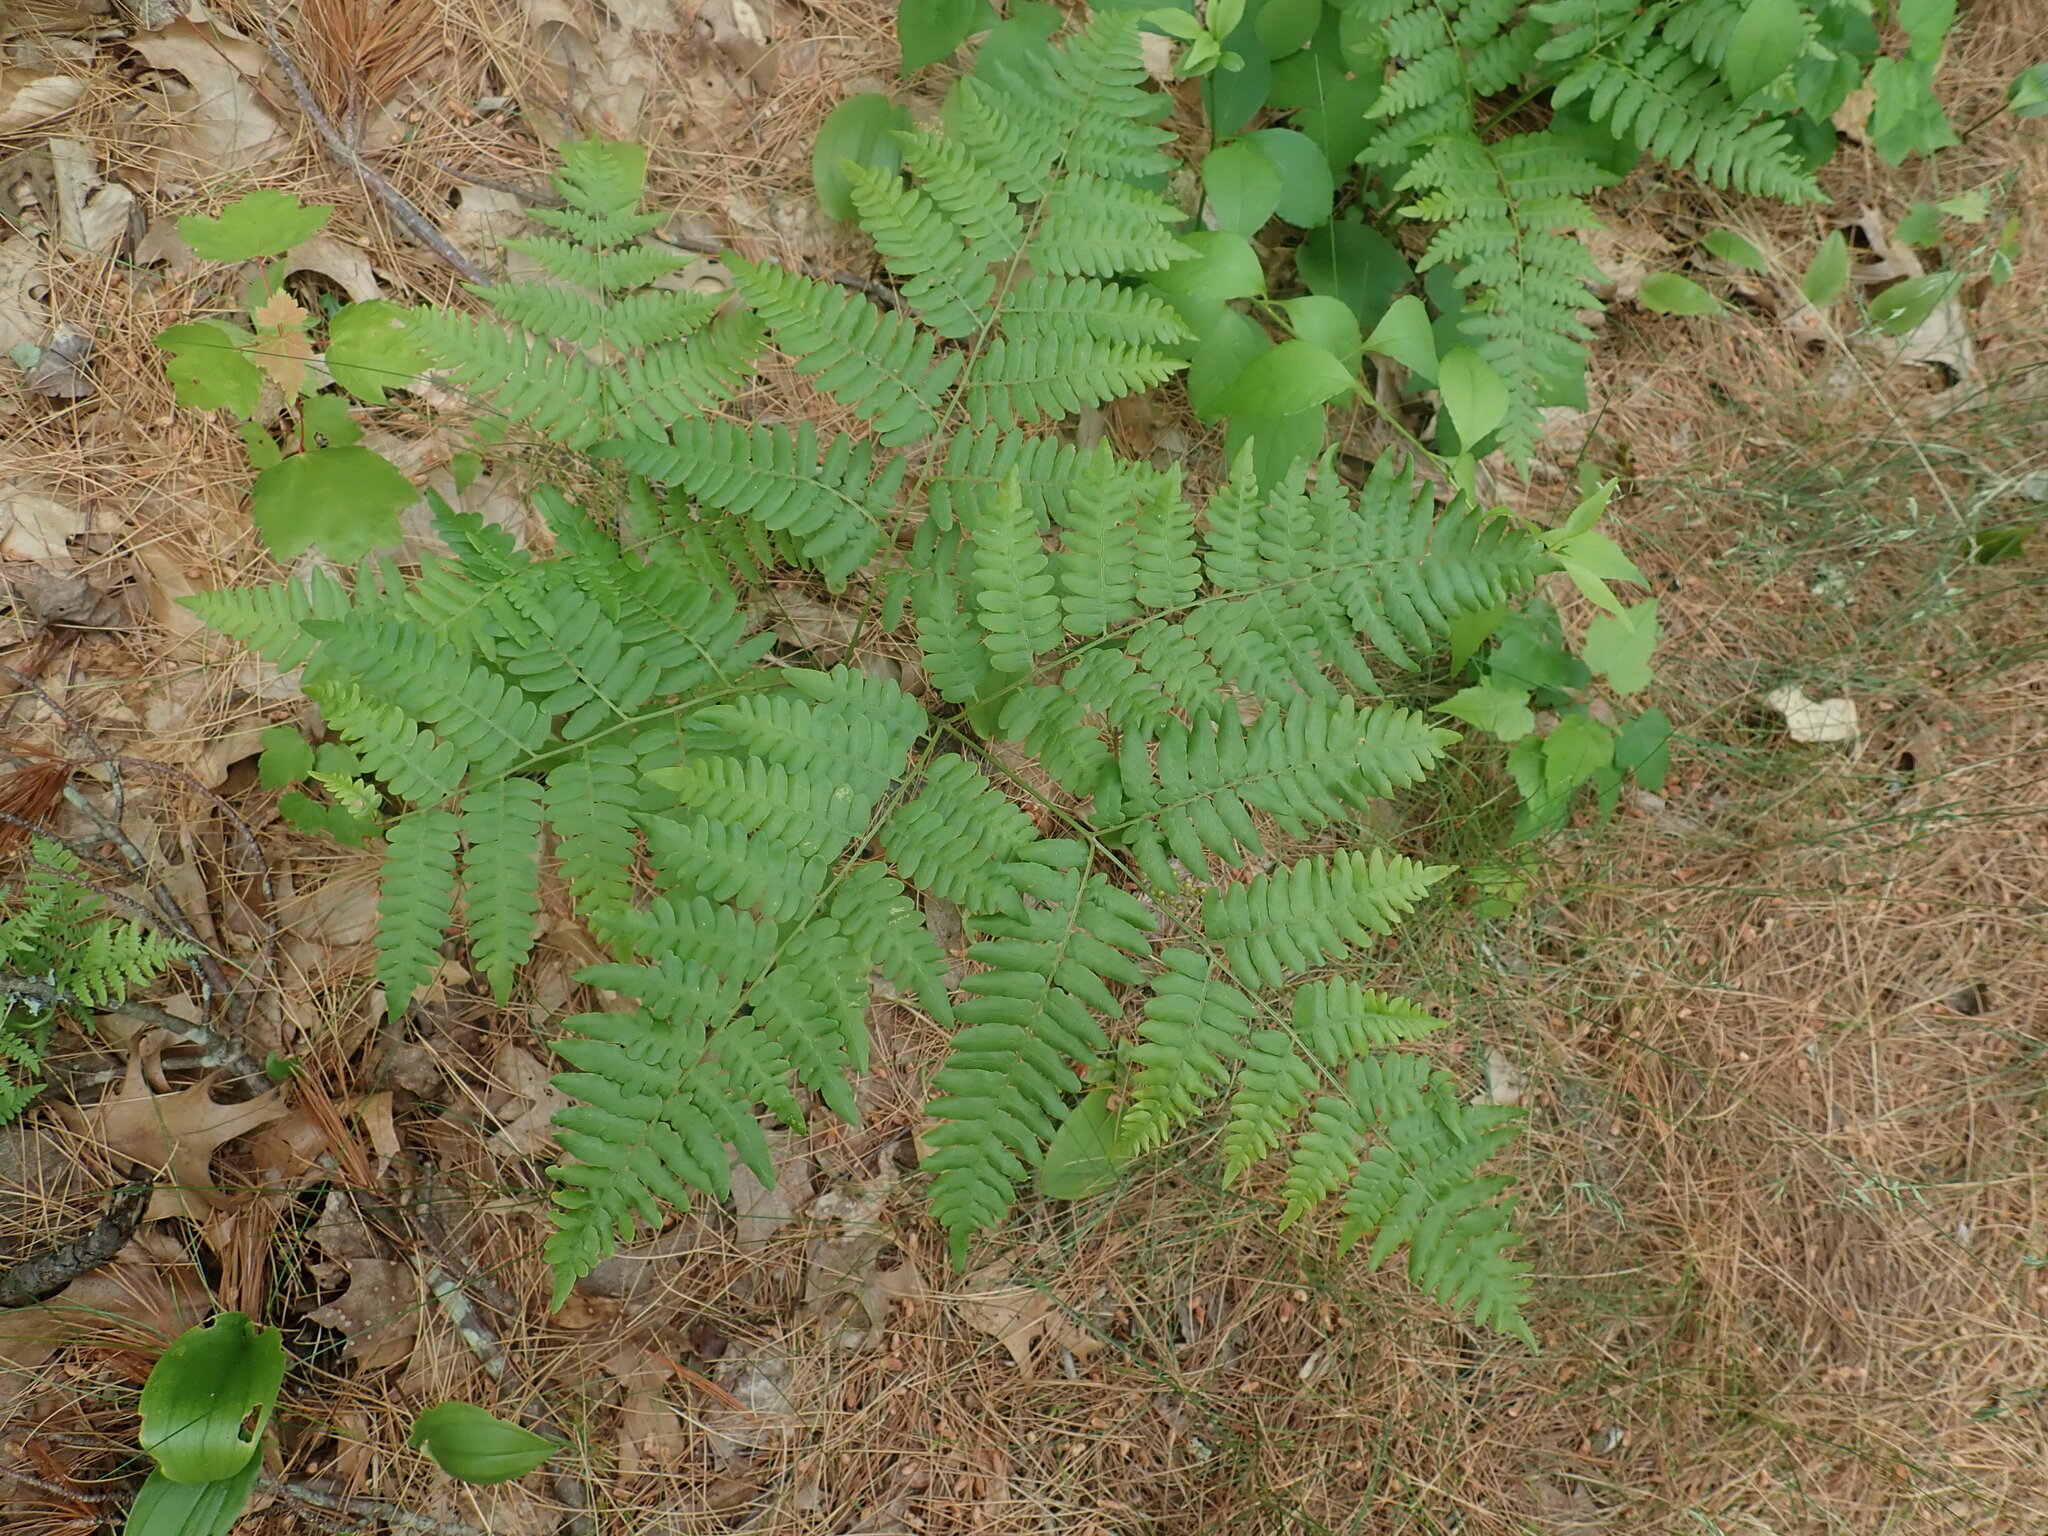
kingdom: Plantae
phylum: Tracheophyta
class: Polypodiopsida
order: Polypodiales
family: Dennstaedtiaceae
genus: Pteridium
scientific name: Pteridium aquilinum
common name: Bracken
